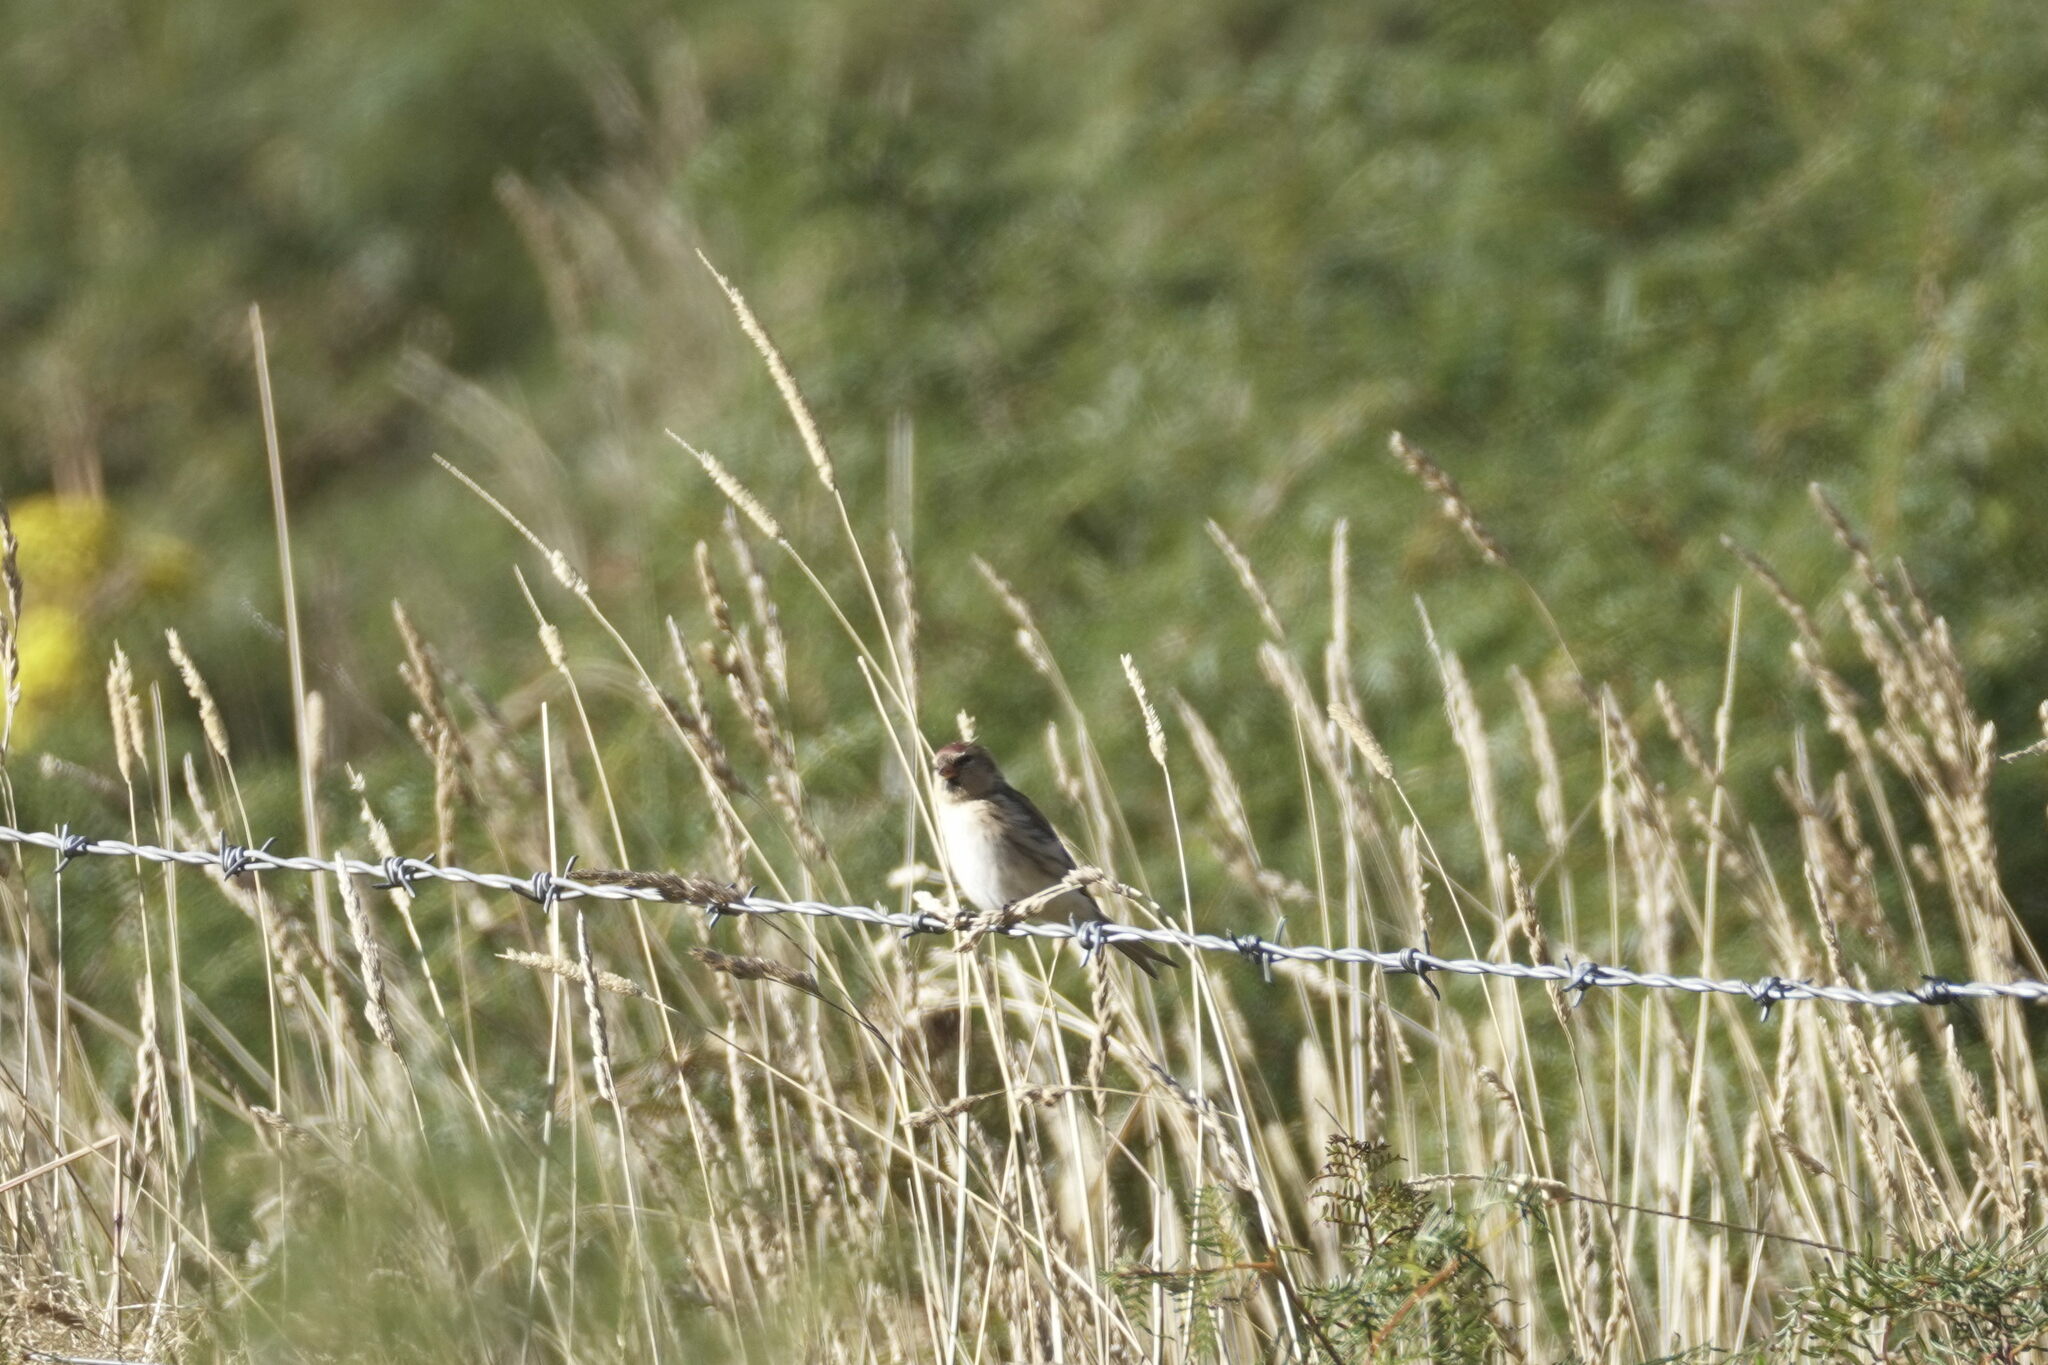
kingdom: Animalia
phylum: Chordata
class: Aves
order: Passeriformes
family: Fringillidae
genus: Acanthis
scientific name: Acanthis flammea
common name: Common redpoll
